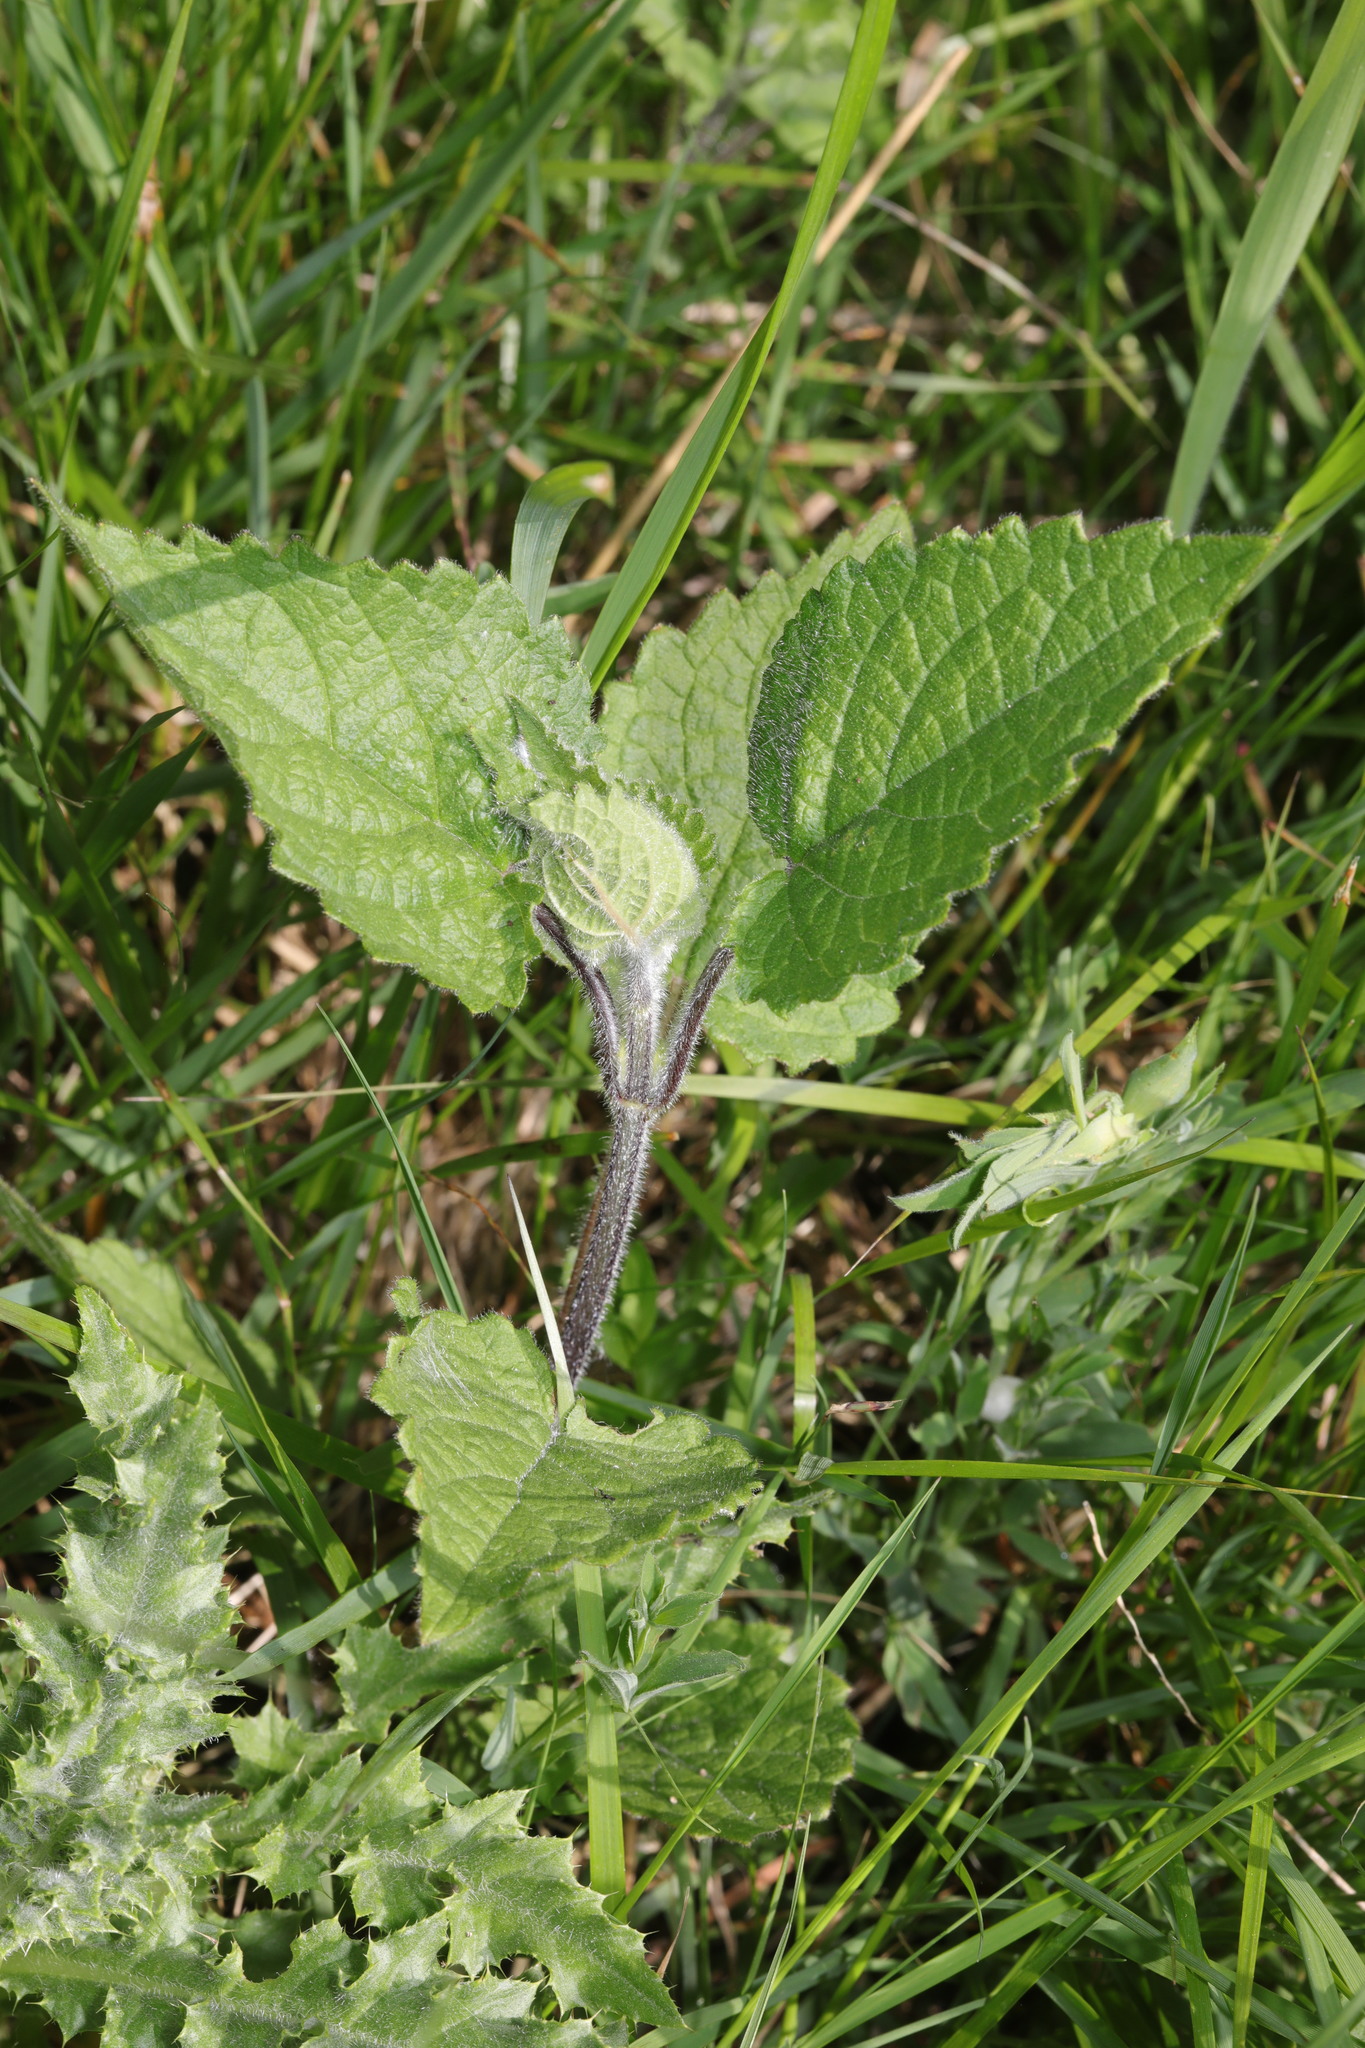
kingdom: Plantae
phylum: Tracheophyta
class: Magnoliopsida
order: Lamiales
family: Lamiaceae
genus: Stachys
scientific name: Stachys sylvatica
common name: Hedge woundwort
